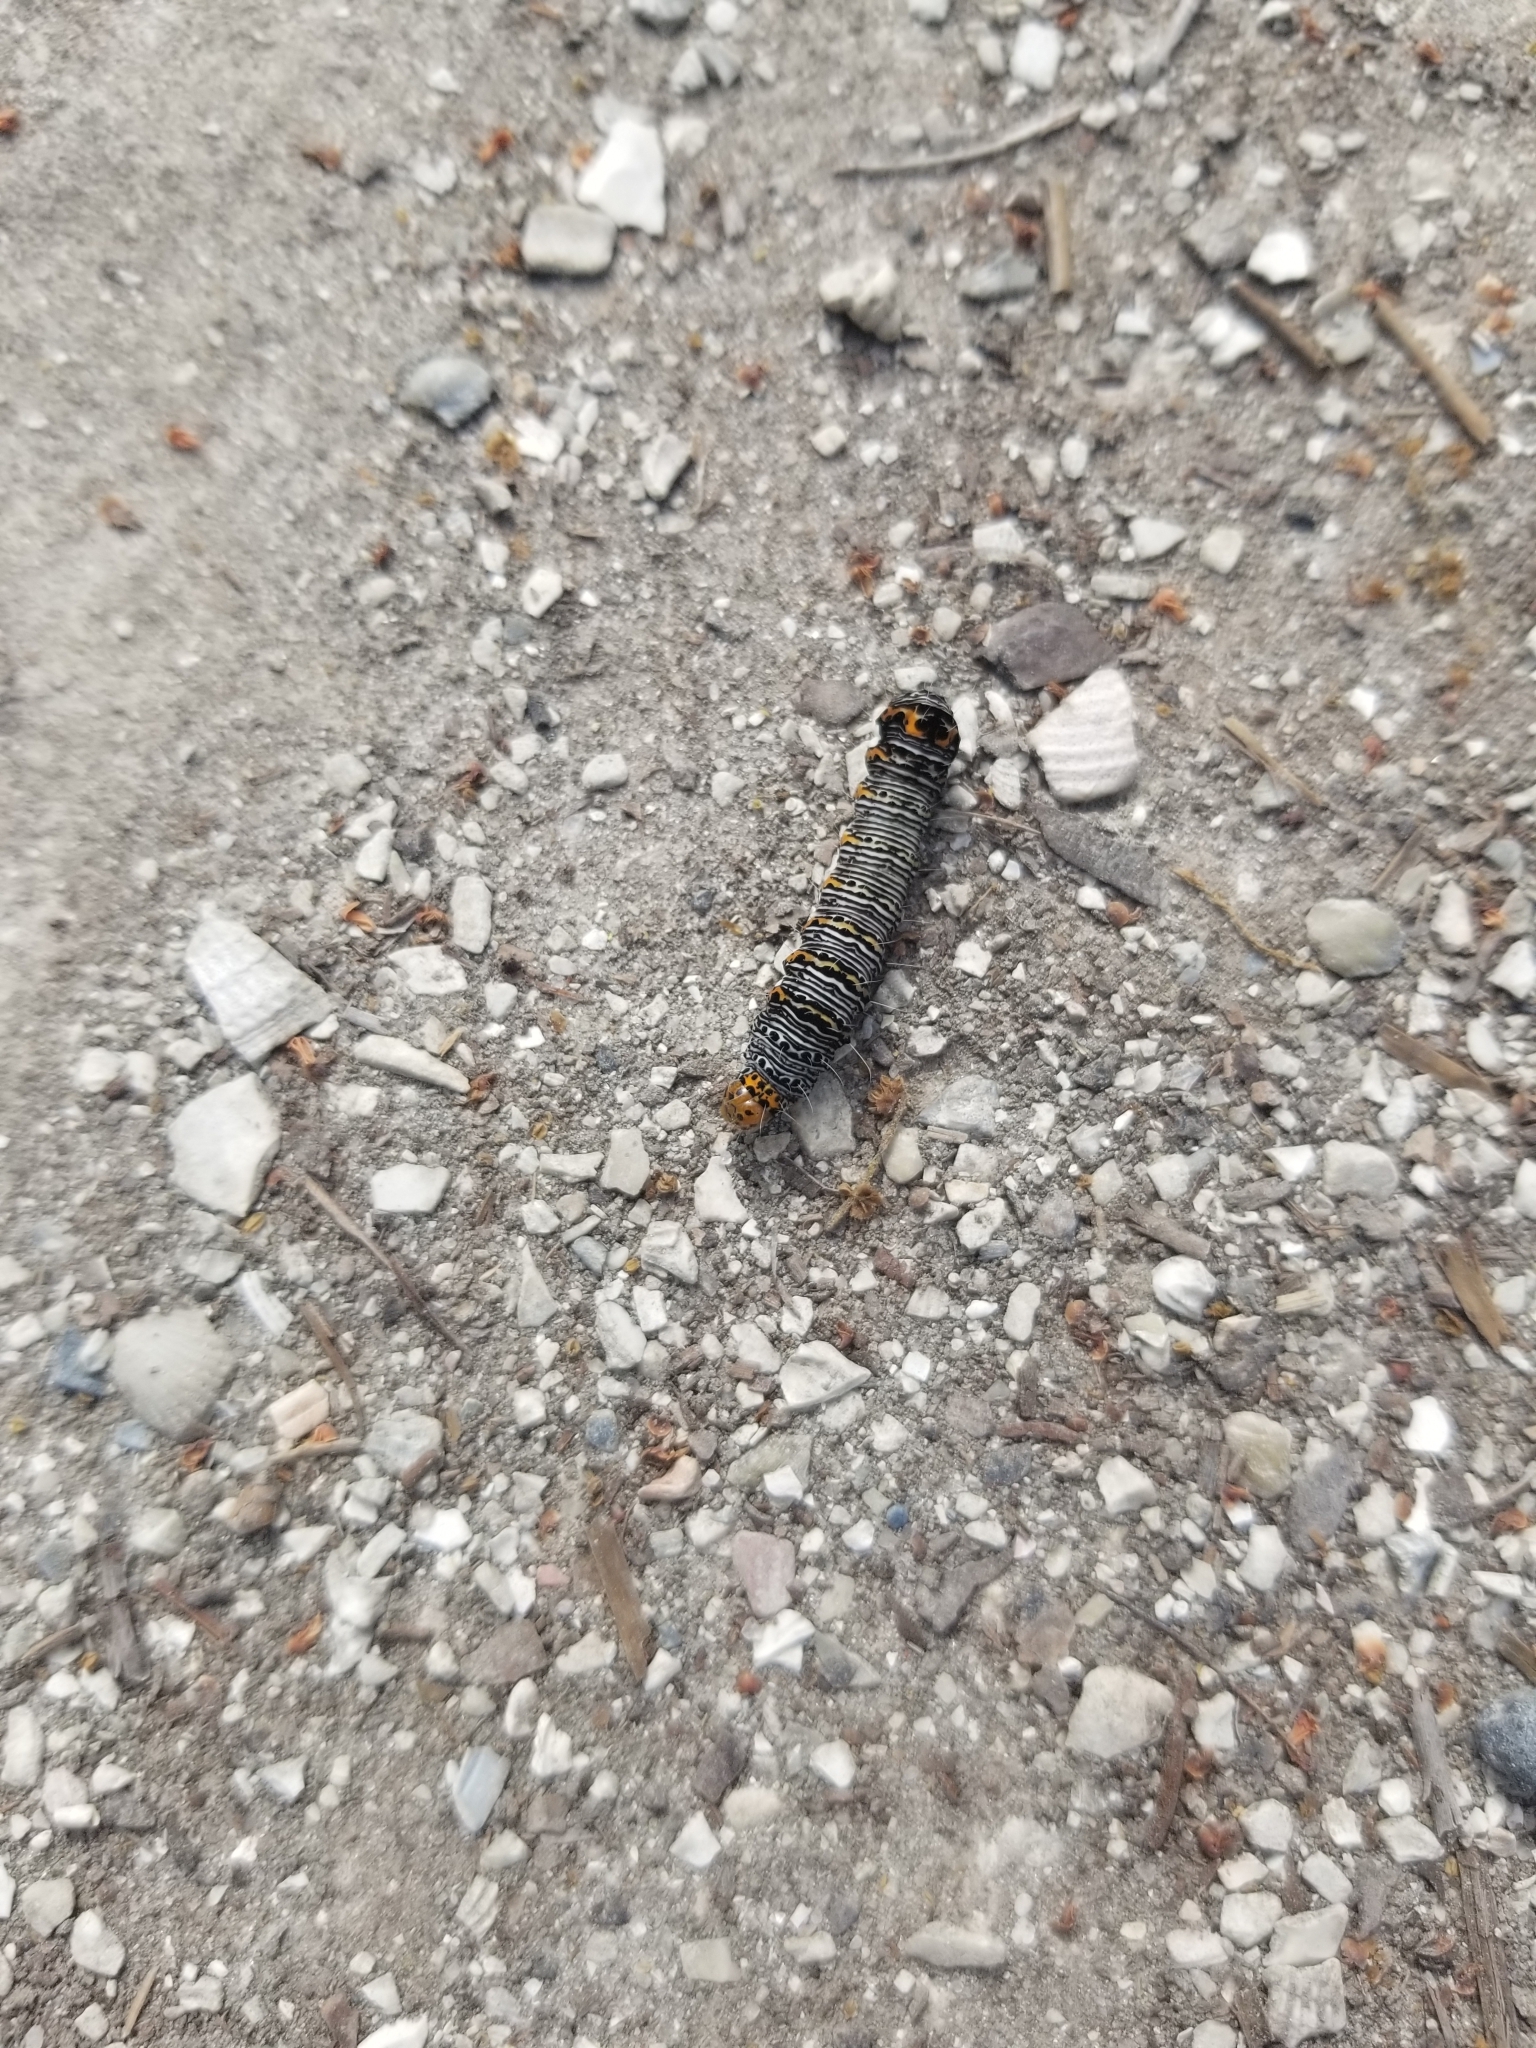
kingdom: Animalia
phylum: Arthropoda
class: Insecta
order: Lepidoptera
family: Noctuidae
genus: Alypia
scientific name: Alypia octomaculata
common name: Eight-spotted forester
